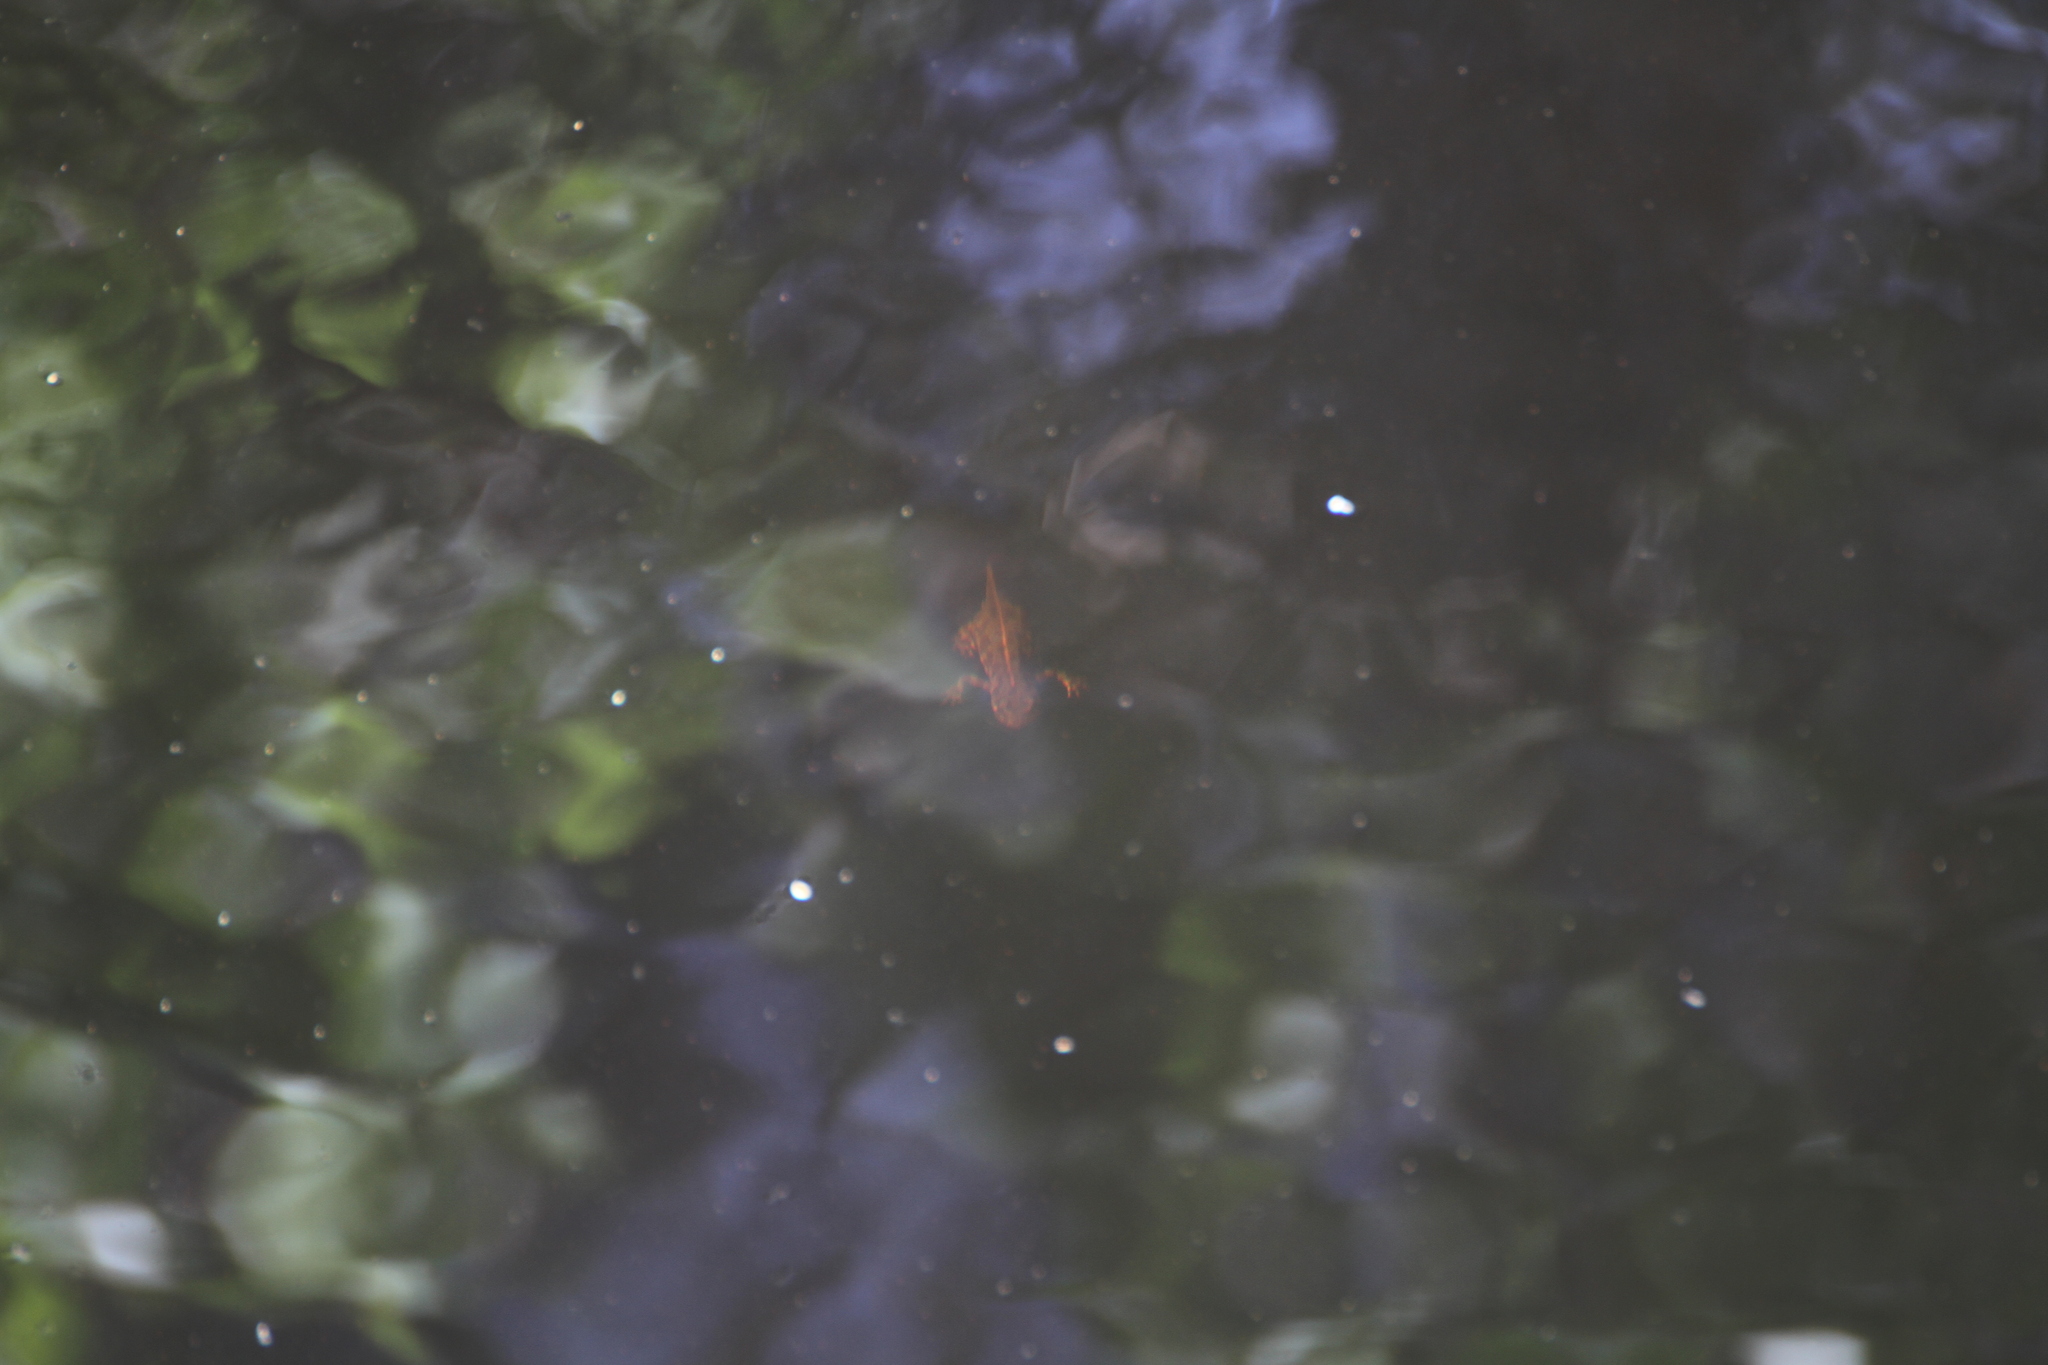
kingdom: Animalia
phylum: Chordata
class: Amphibia
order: Caudata
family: Salamandridae
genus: Triturus
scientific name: Triturus marmoratus
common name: Marbled newt
